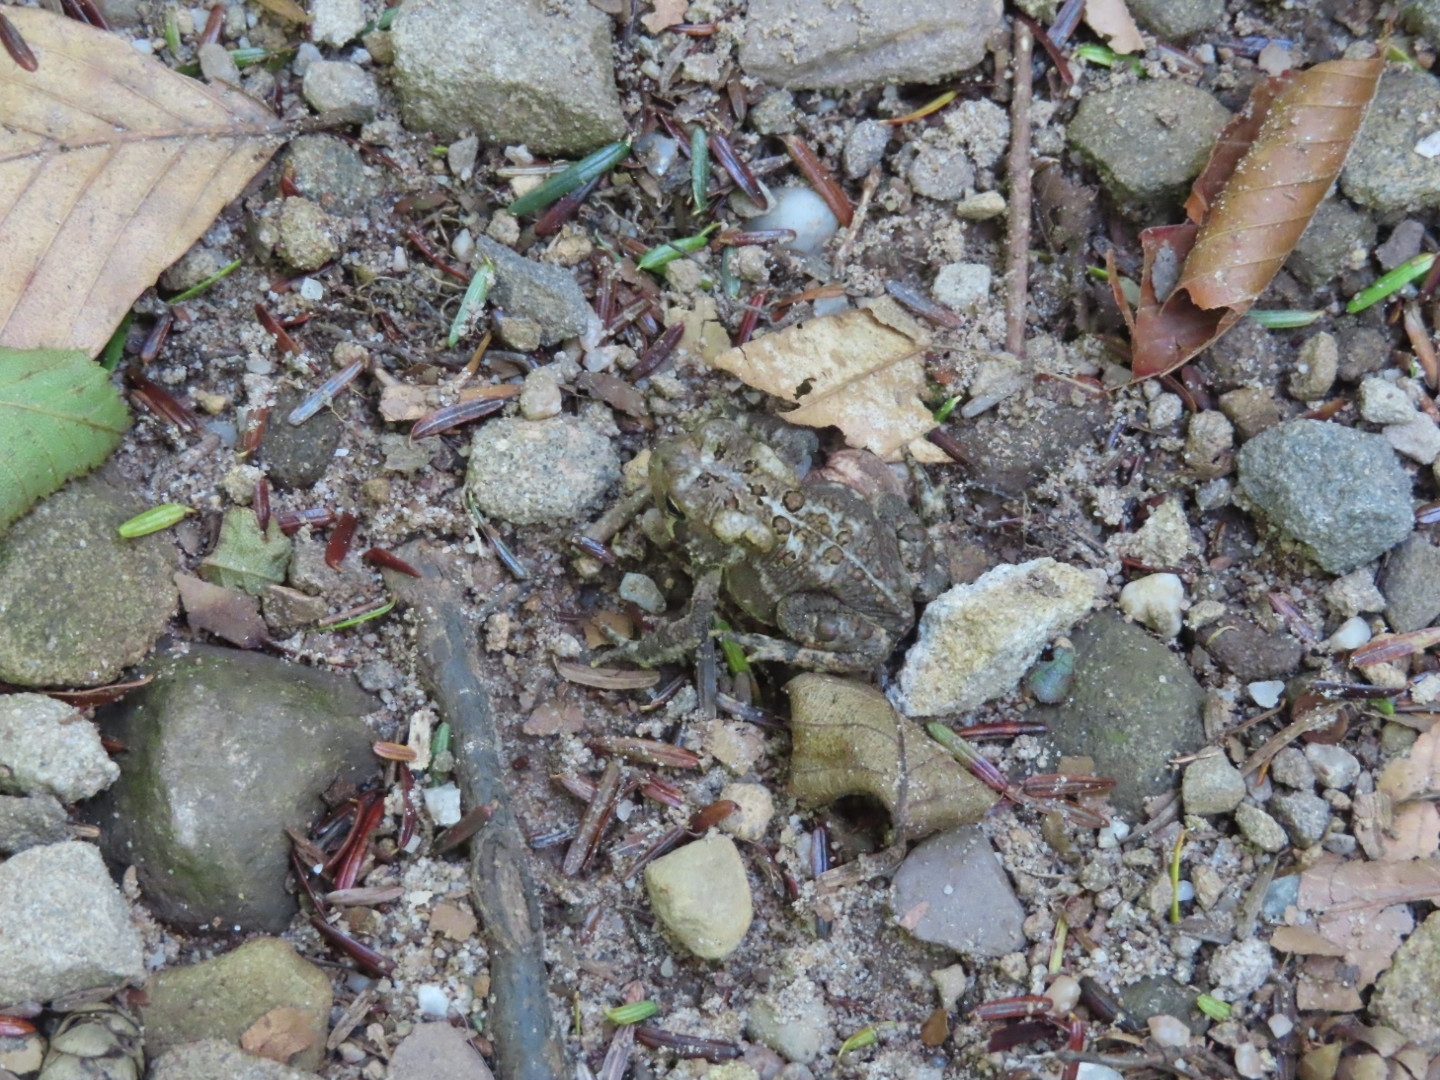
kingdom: Animalia
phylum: Chordata
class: Amphibia
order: Anura
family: Bufonidae
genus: Anaxyrus
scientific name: Anaxyrus americanus
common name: American toad
